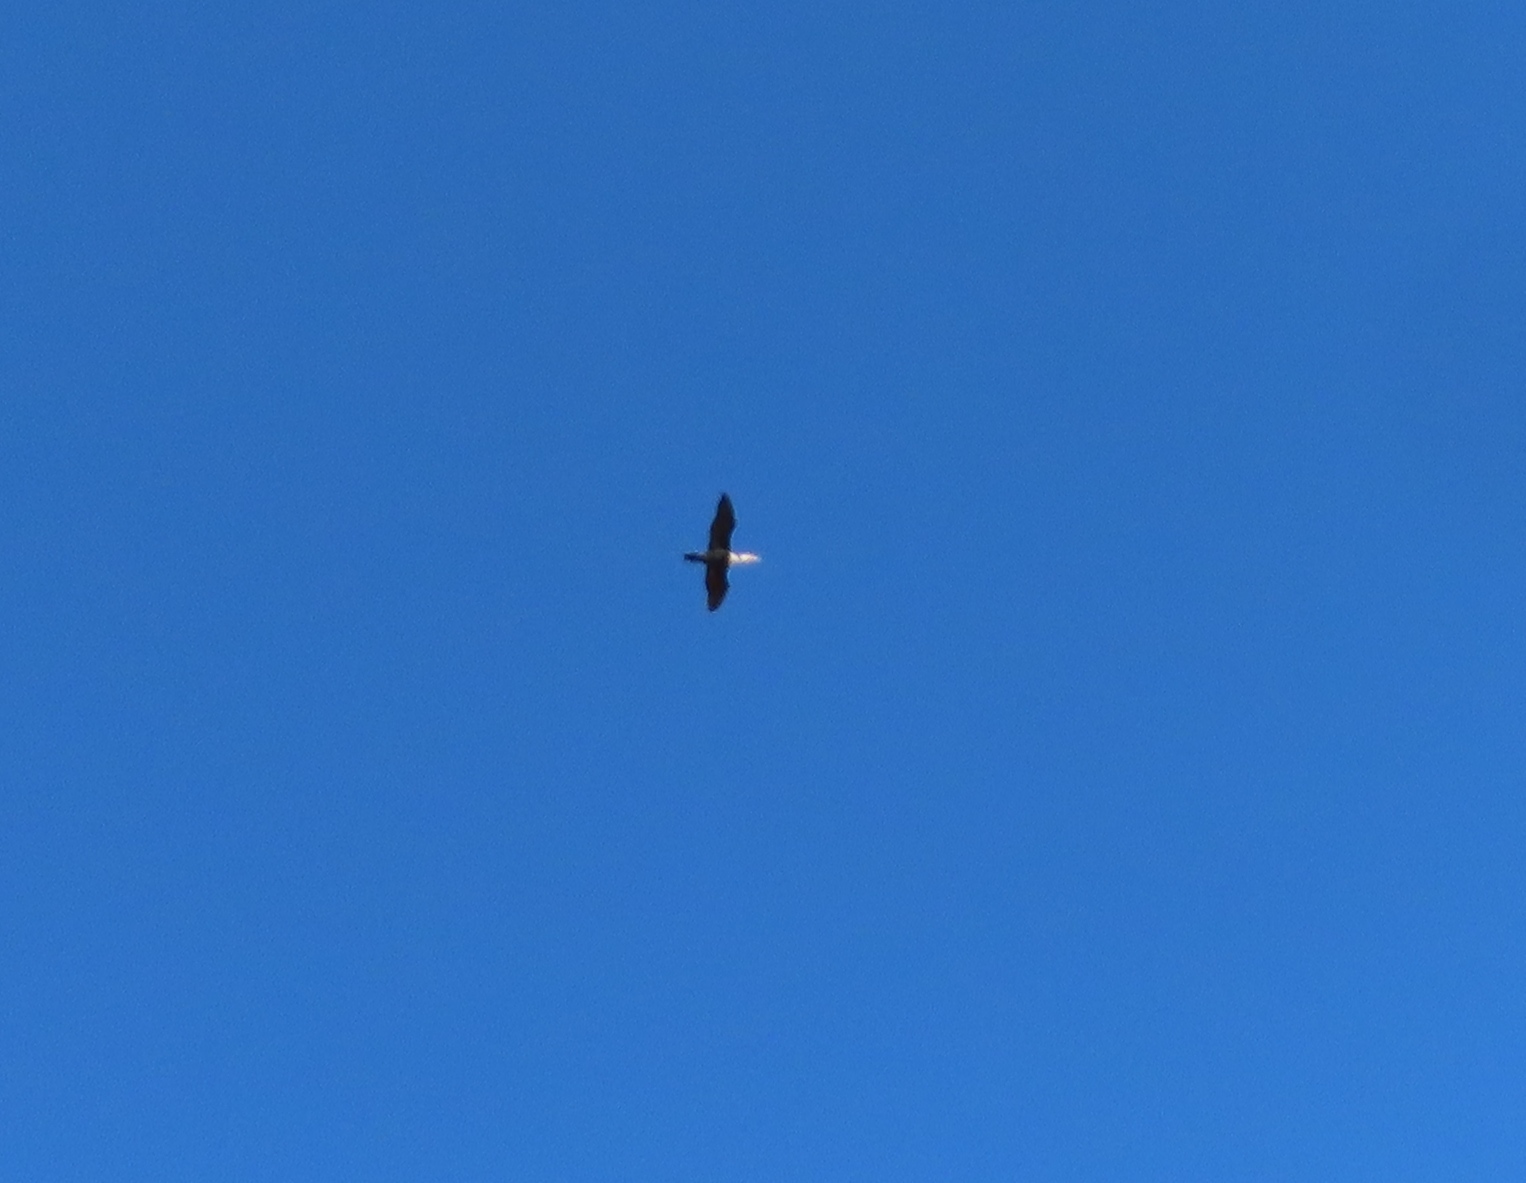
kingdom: Animalia
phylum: Chordata
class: Aves
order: Suliformes
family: Phalacrocoracidae
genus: Phalacrocorax
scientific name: Phalacrocorax carbo
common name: Great cormorant
